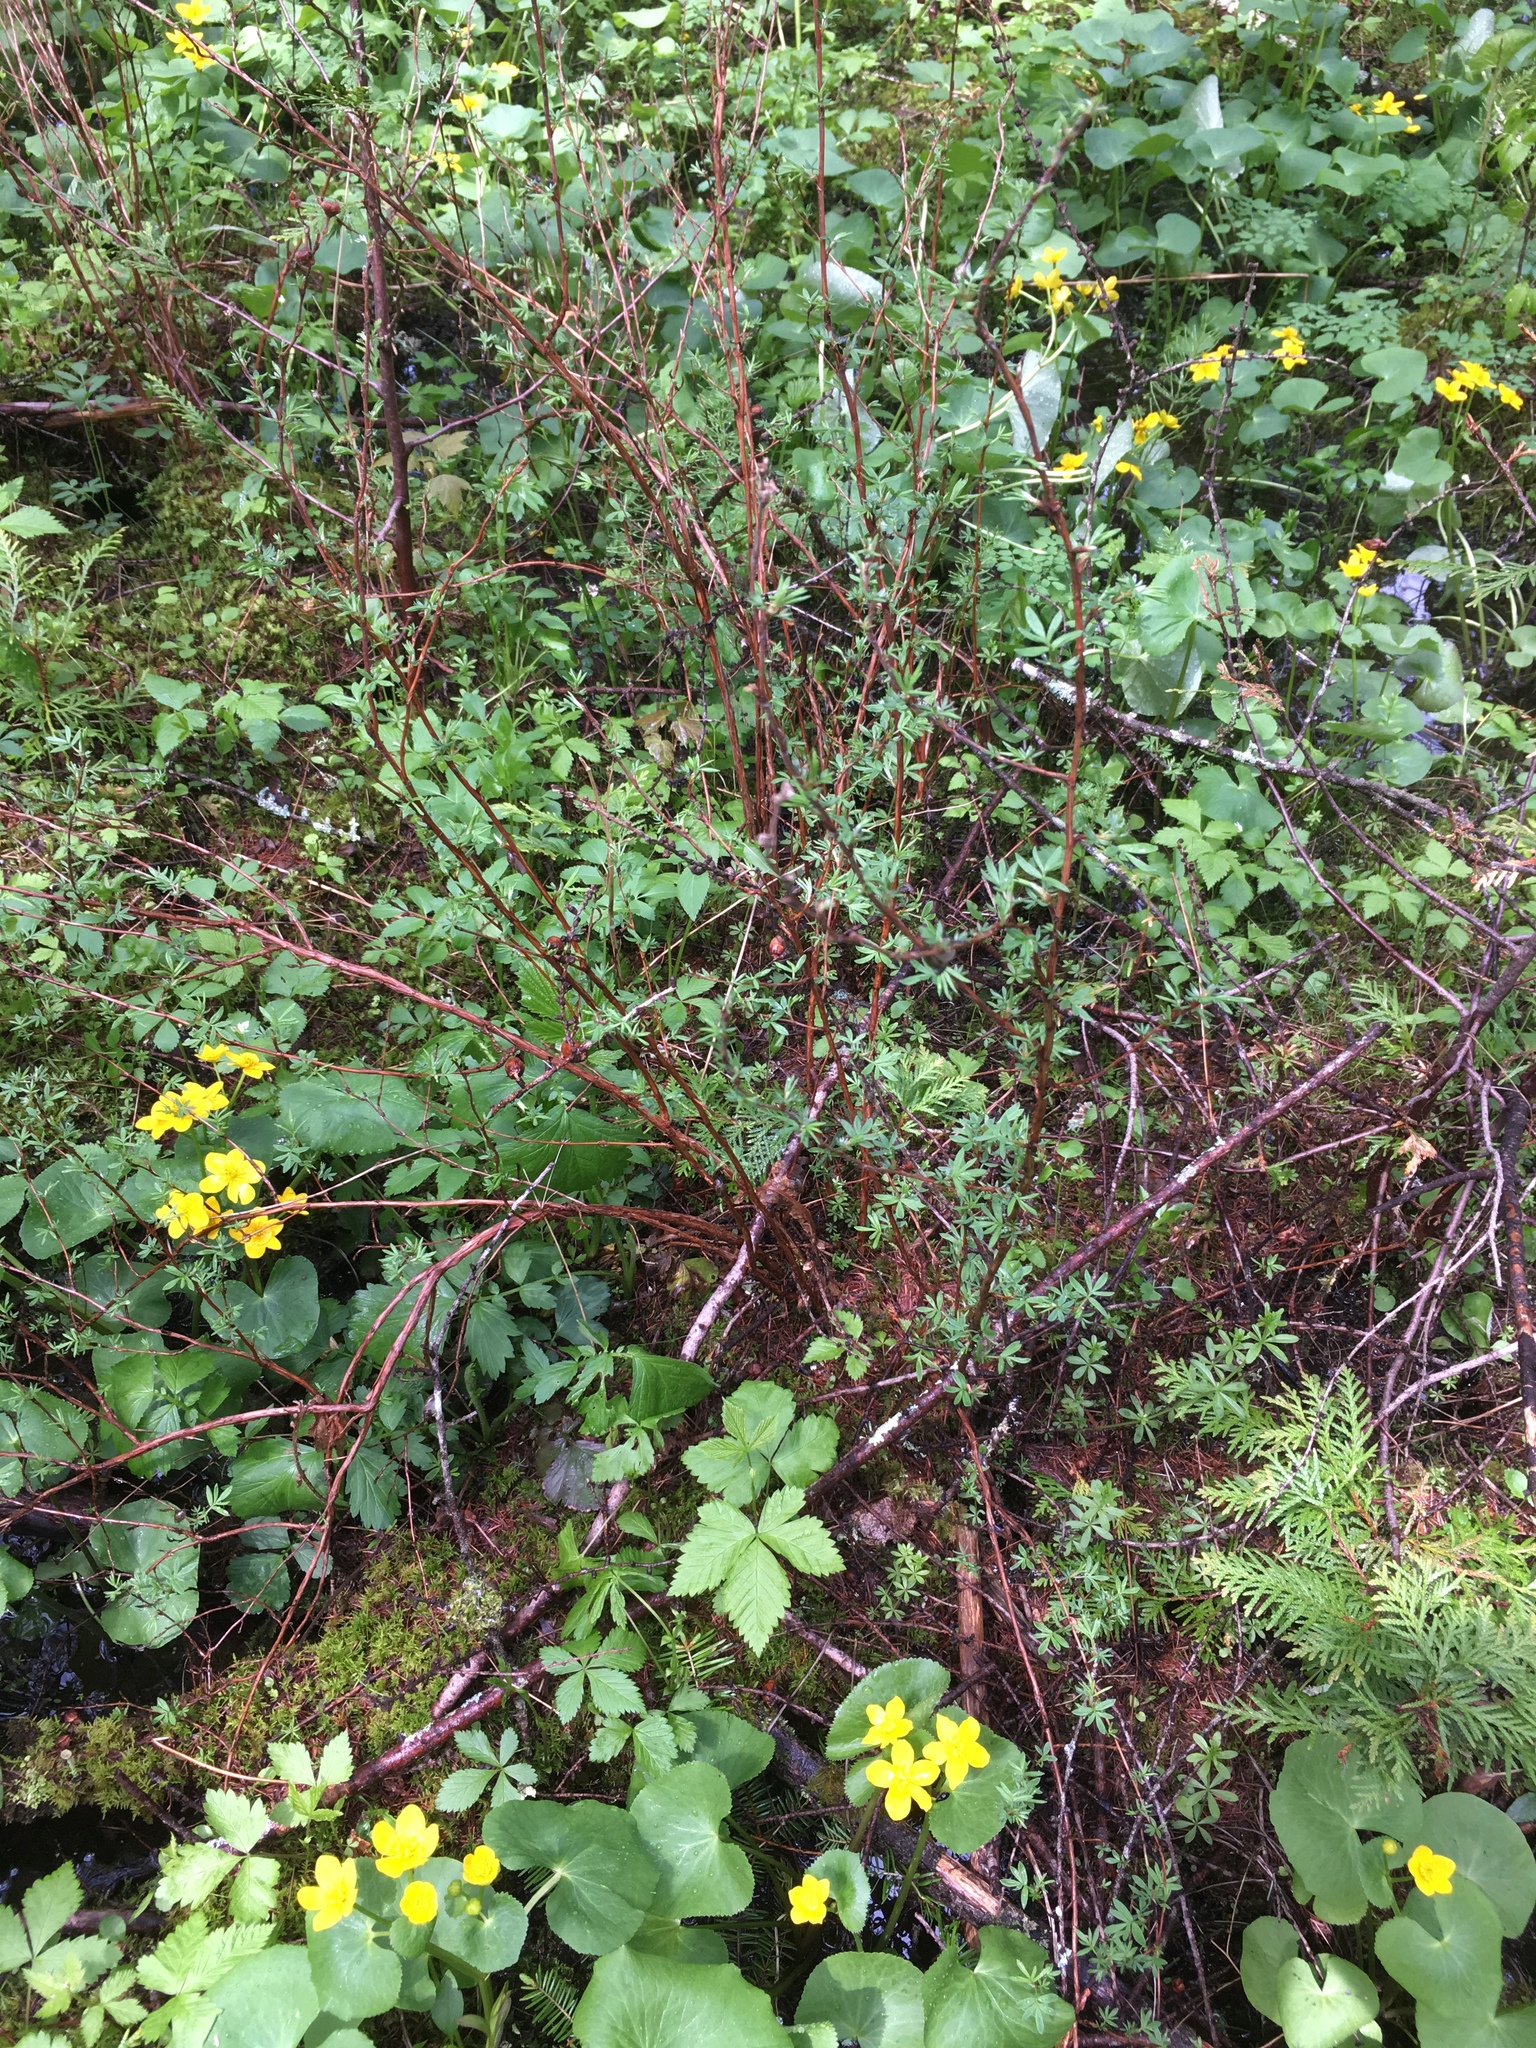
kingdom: Plantae
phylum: Tracheophyta
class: Magnoliopsida
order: Rosales
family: Rosaceae
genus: Dasiphora
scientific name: Dasiphora fruticosa
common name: Shrubby cinquefoil
